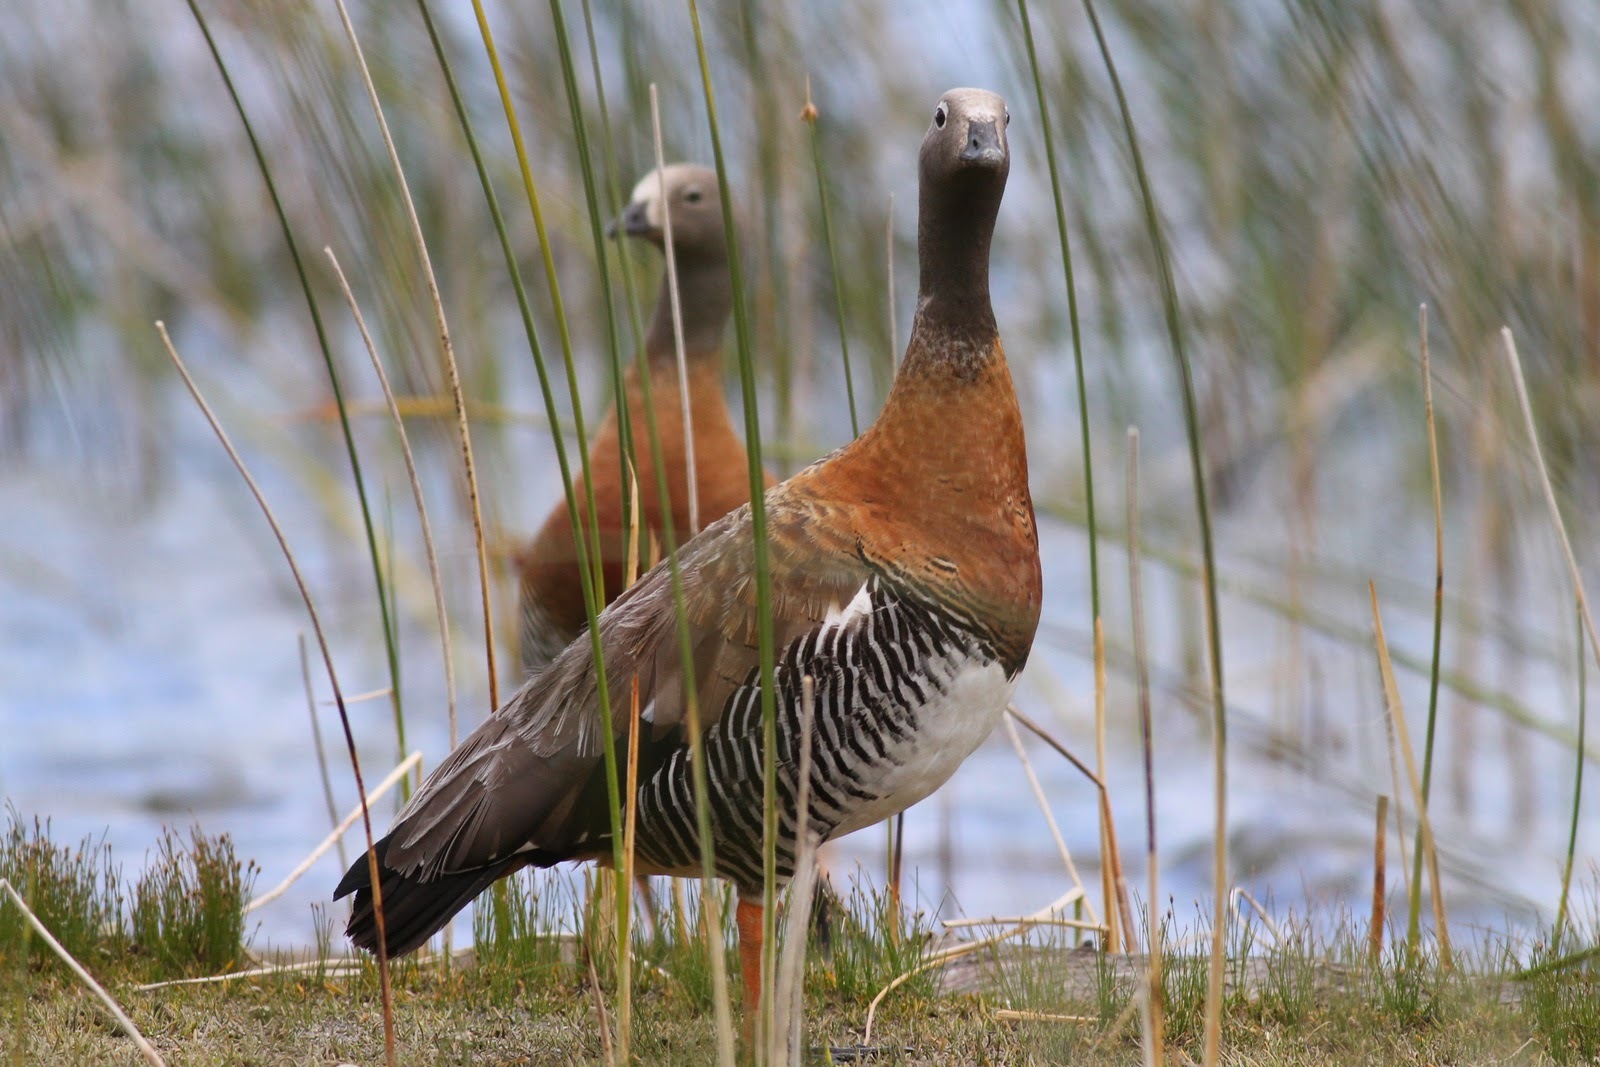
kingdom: Animalia
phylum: Chordata
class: Aves
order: Anseriformes
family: Anatidae
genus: Chloephaga
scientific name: Chloephaga poliocephala
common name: Ashy-headed goose
